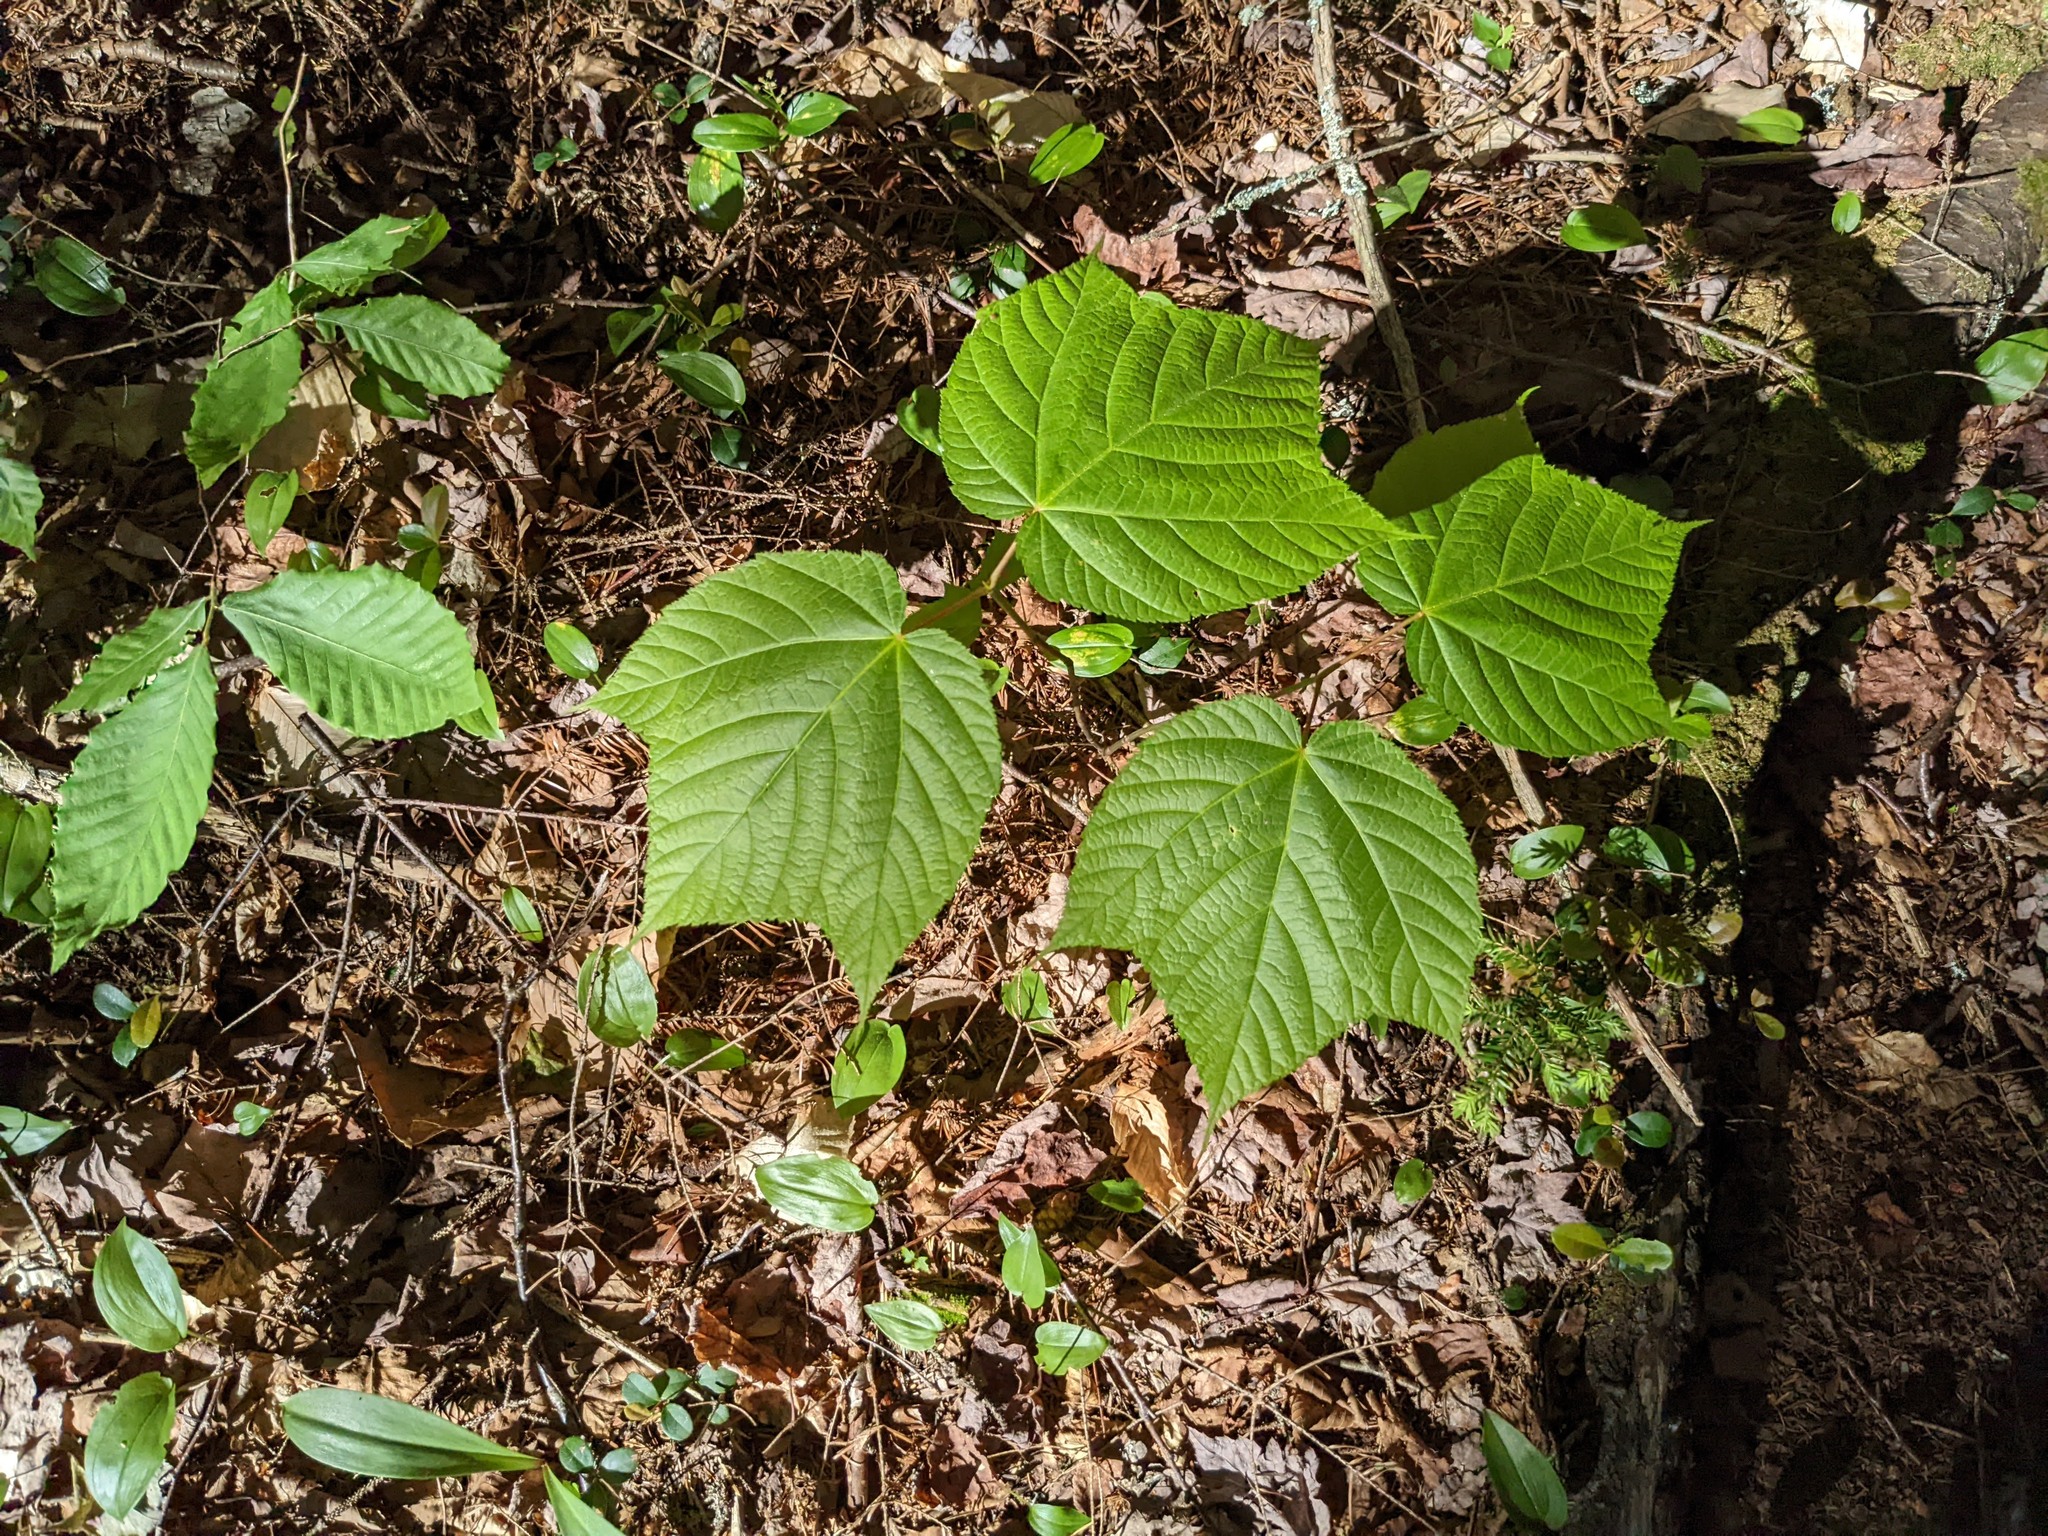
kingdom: Plantae
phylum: Tracheophyta
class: Magnoliopsida
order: Sapindales
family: Sapindaceae
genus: Acer
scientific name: Acer pensylvanicum
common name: Moosewood
